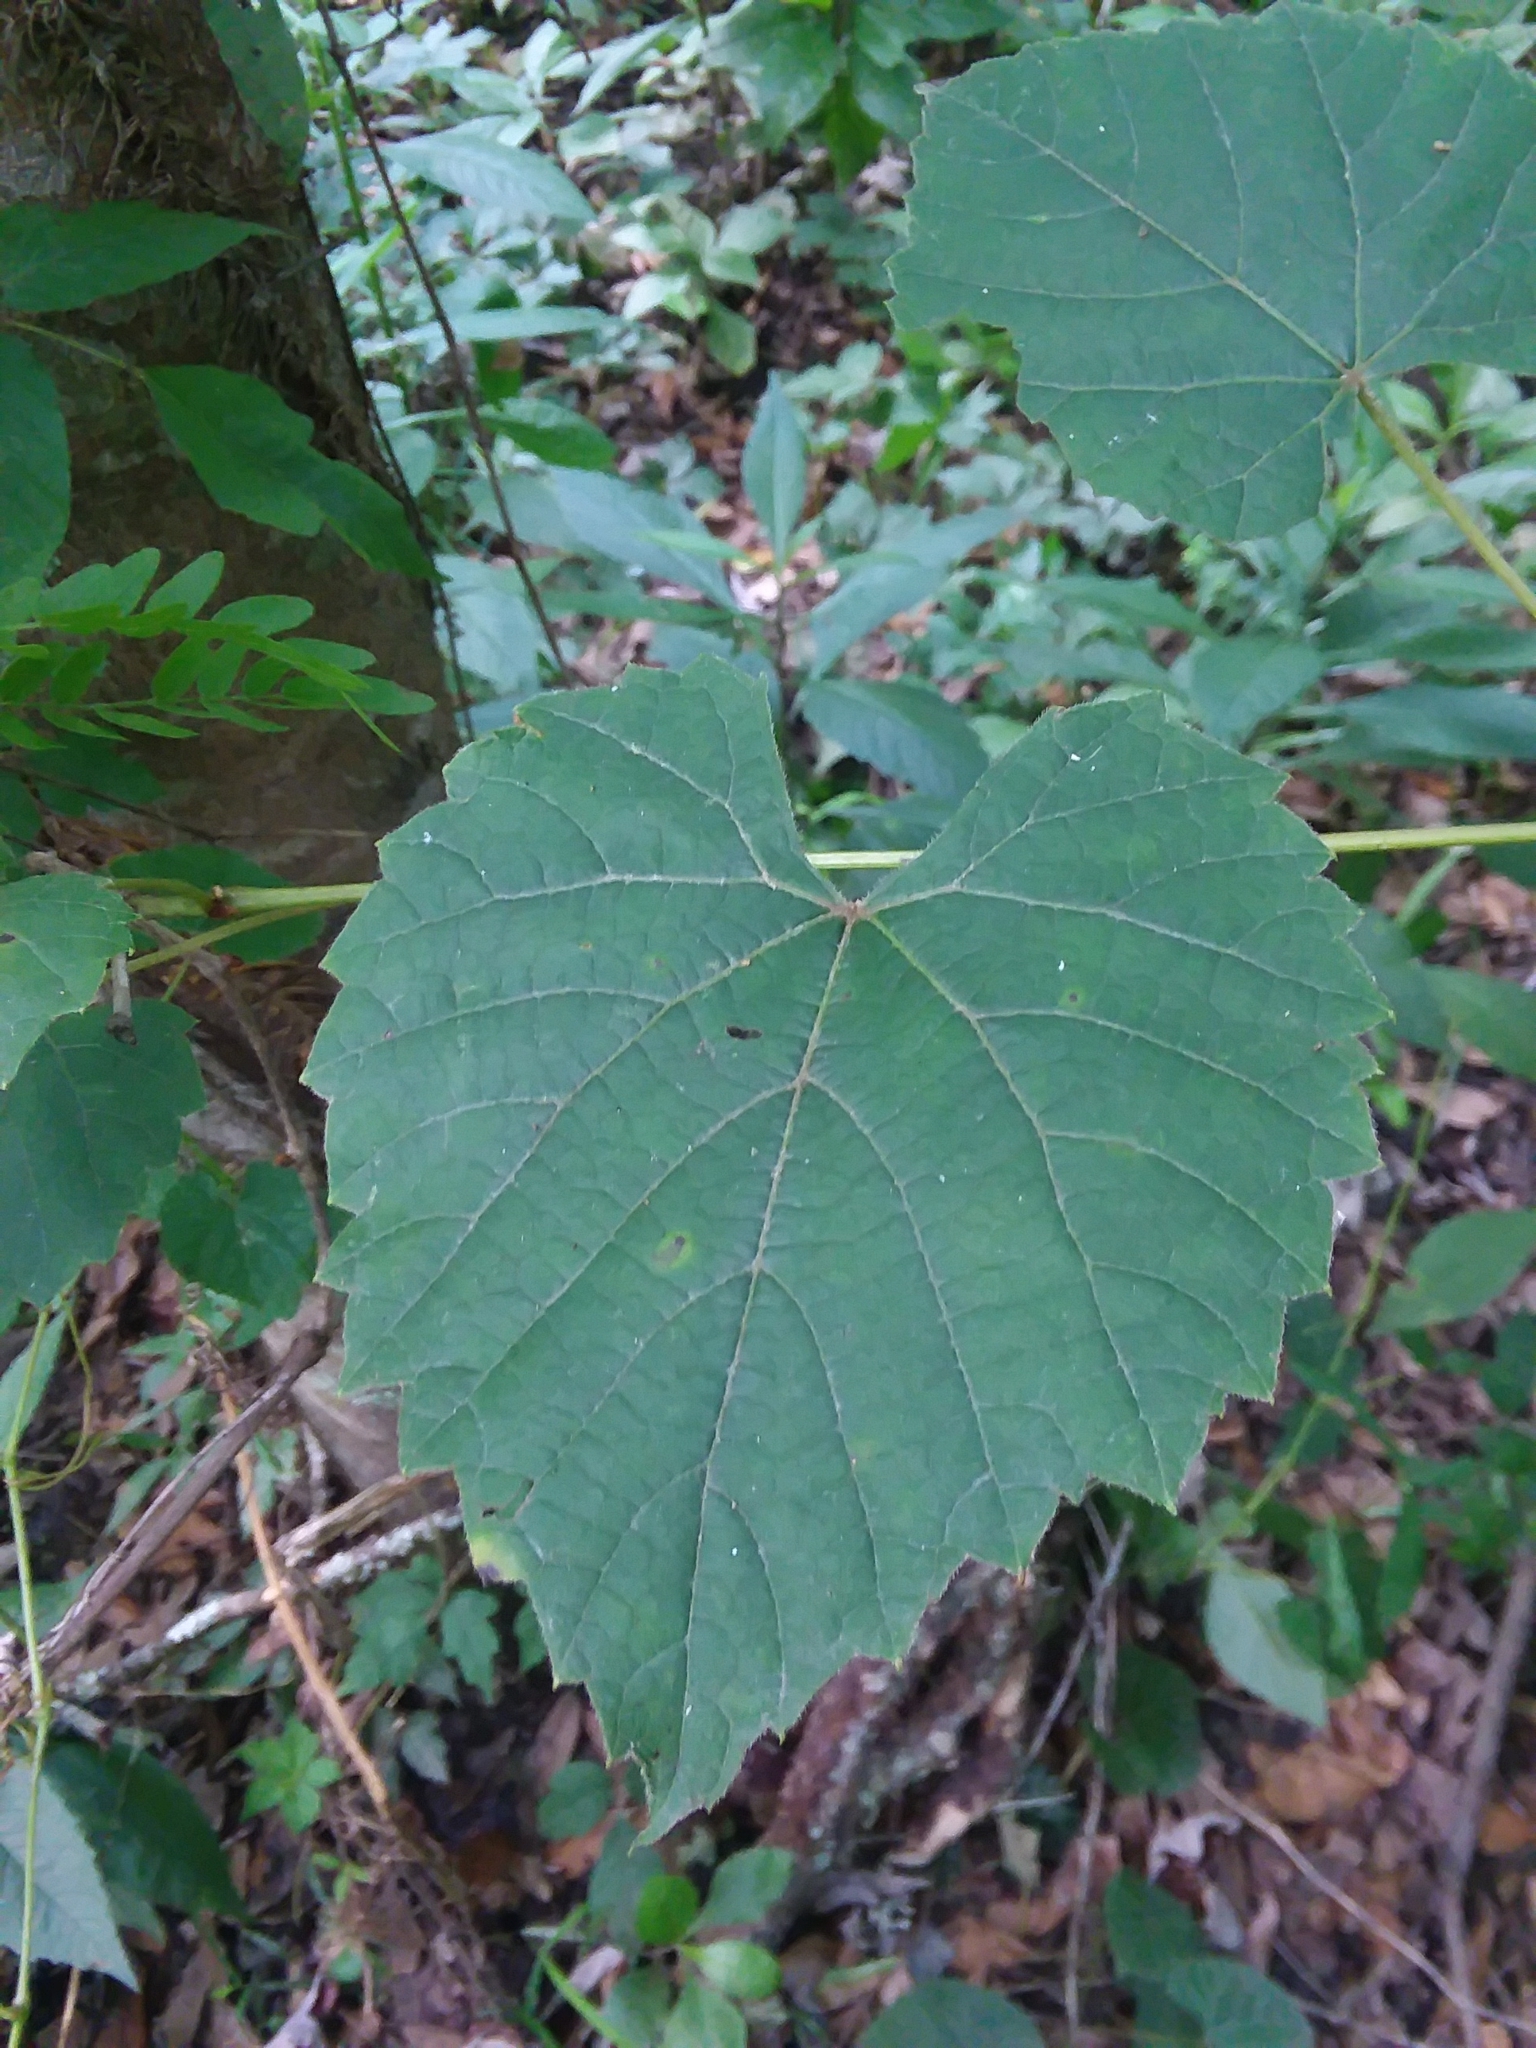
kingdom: Plantae
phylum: Tracheophyta
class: Magnoliopsida
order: Vitales
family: Vitaceae
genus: Vitis
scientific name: Vitis vulpina
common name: Frost grape
